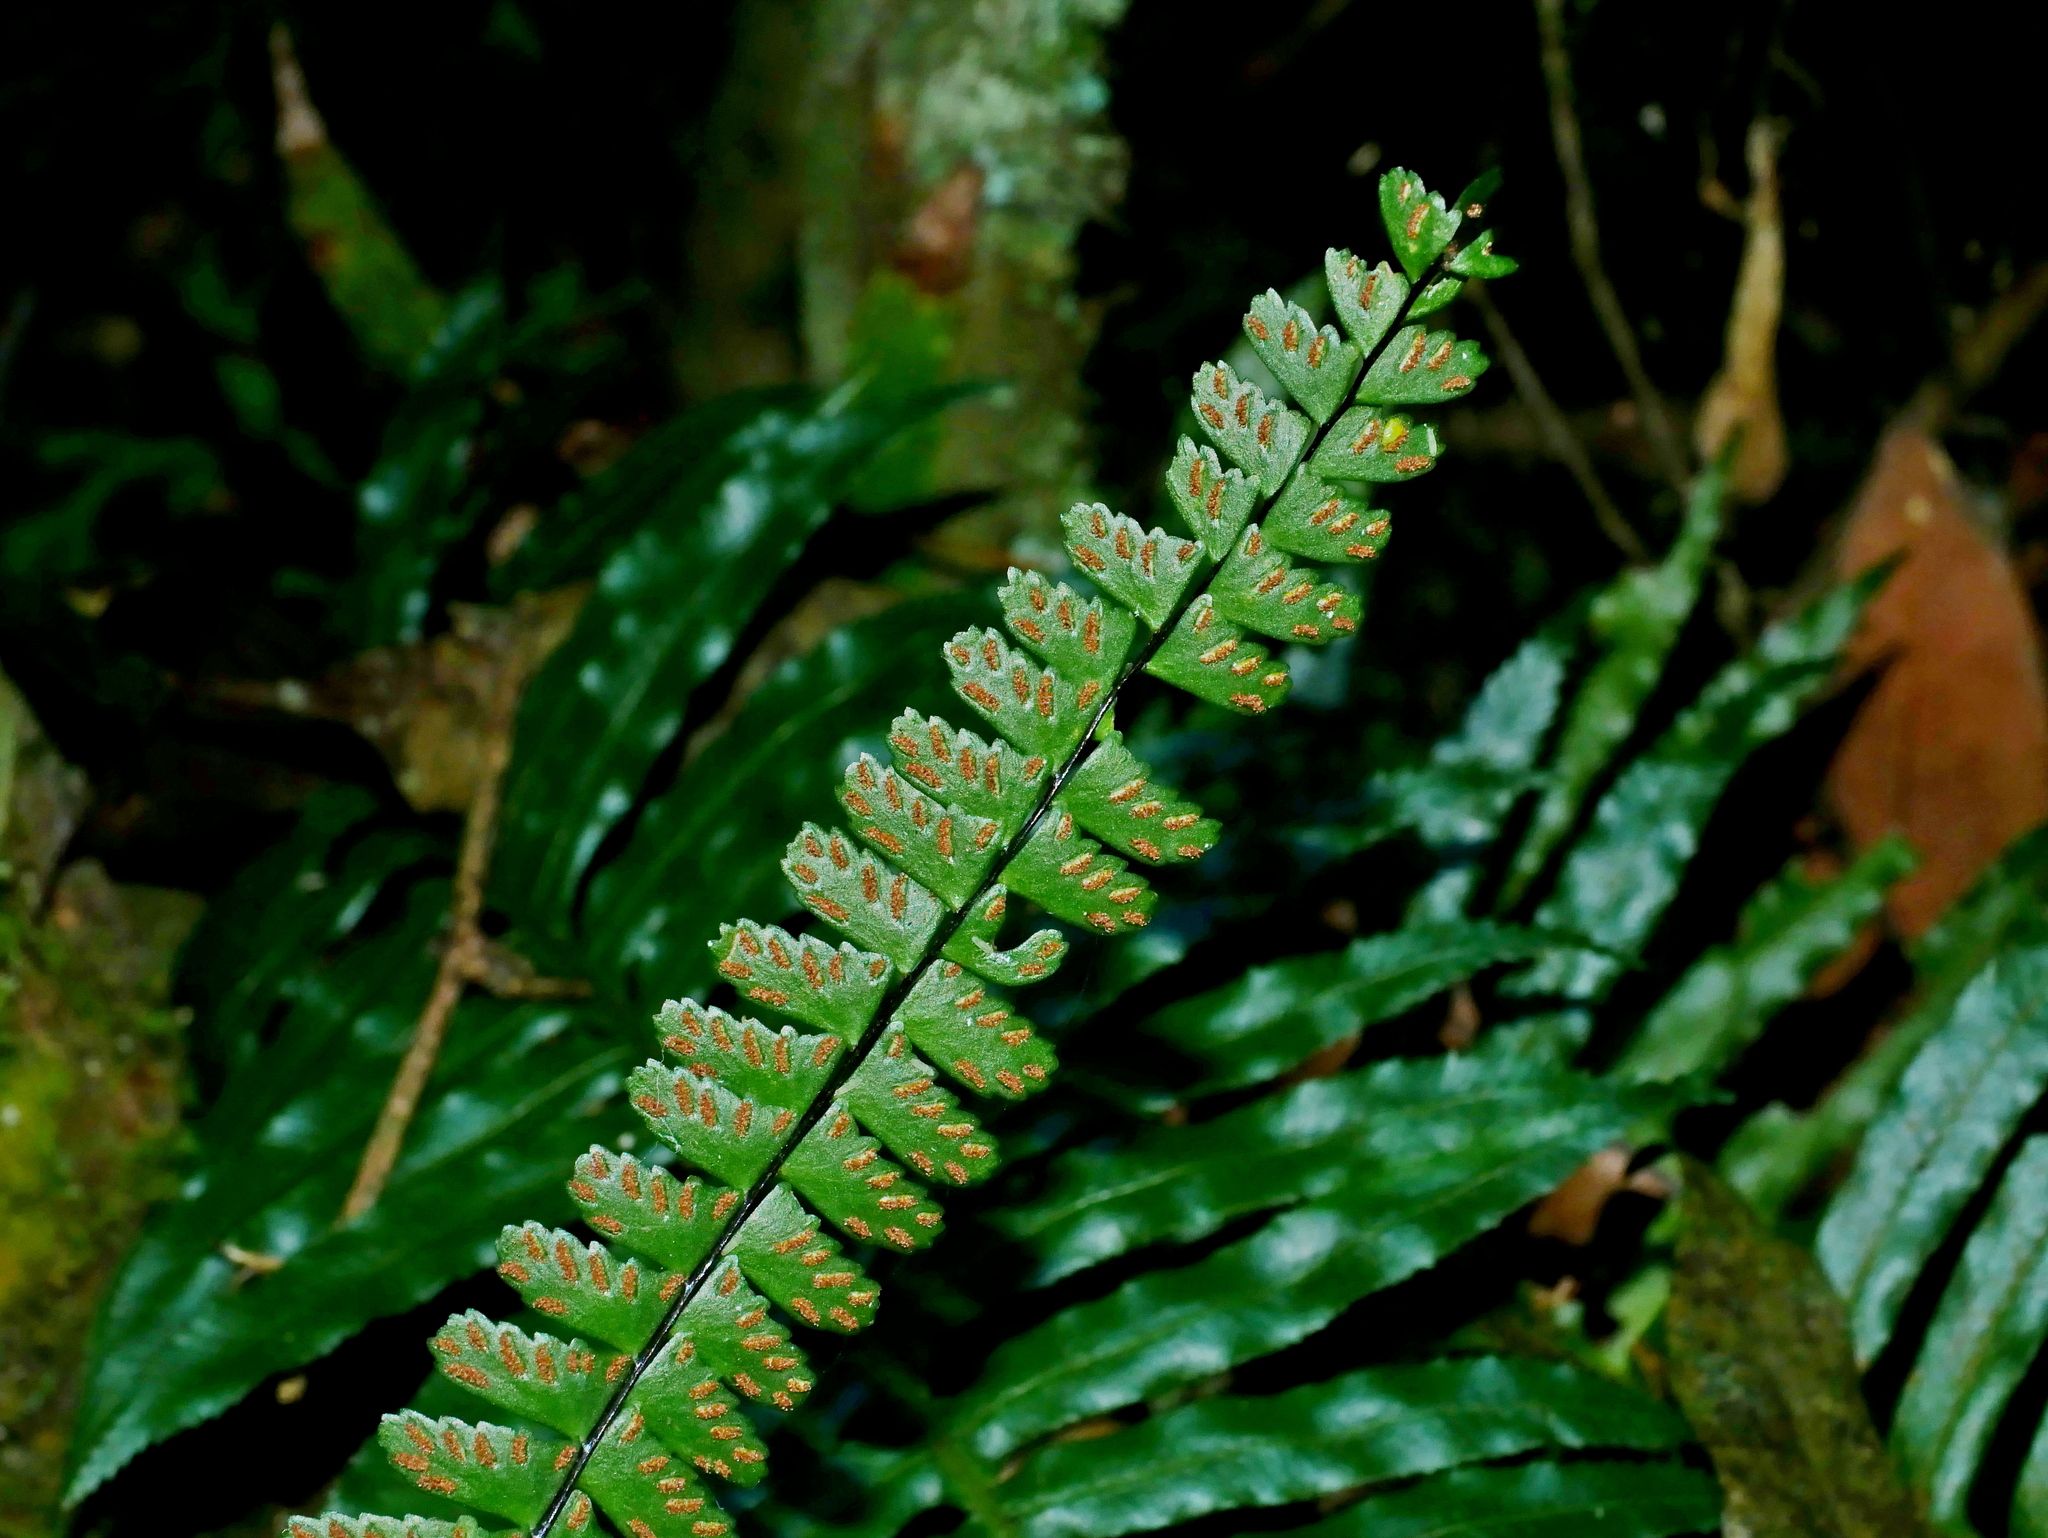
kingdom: Plantae
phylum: Tracheophyta
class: Polypodiopsida
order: Polypodiales
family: Aspleniaceae
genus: Asplenium
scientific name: Asplenium normale
